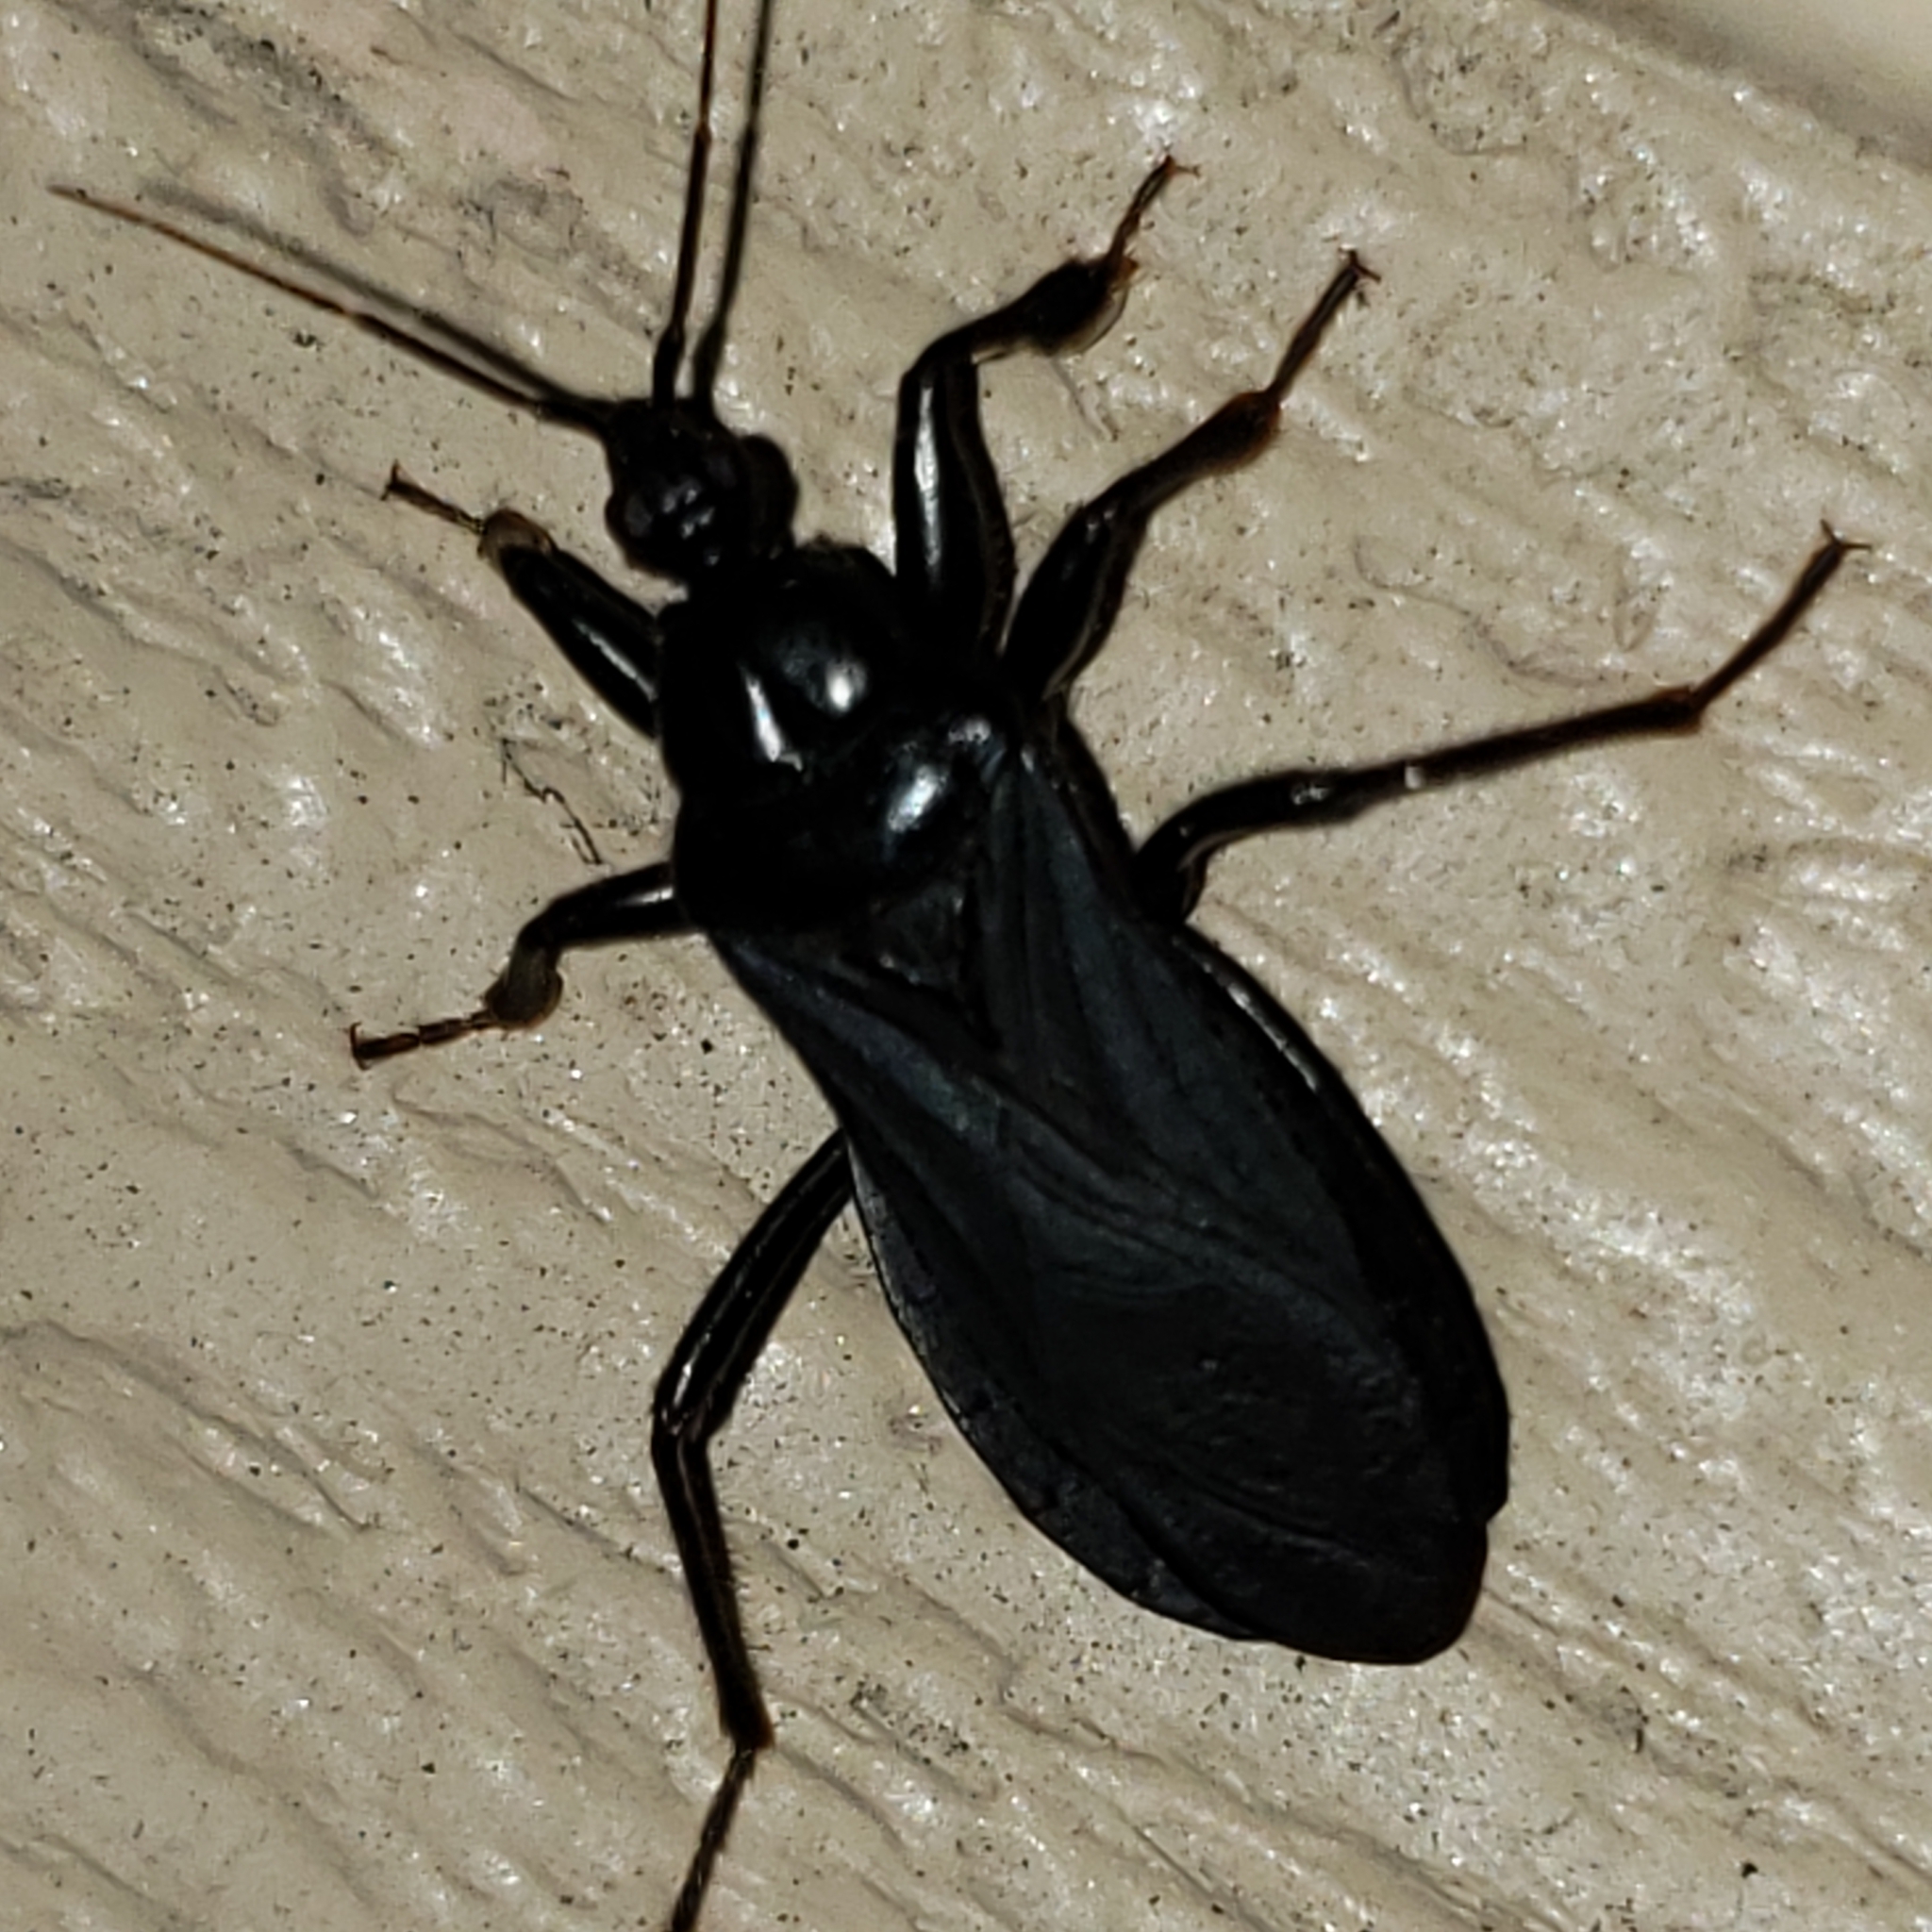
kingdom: Animalia
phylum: Arthropoda
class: Insecta
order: Hemiptera
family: Reduviidae
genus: Melanolestes
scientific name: Melanolestes picipes
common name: Assassin bug
